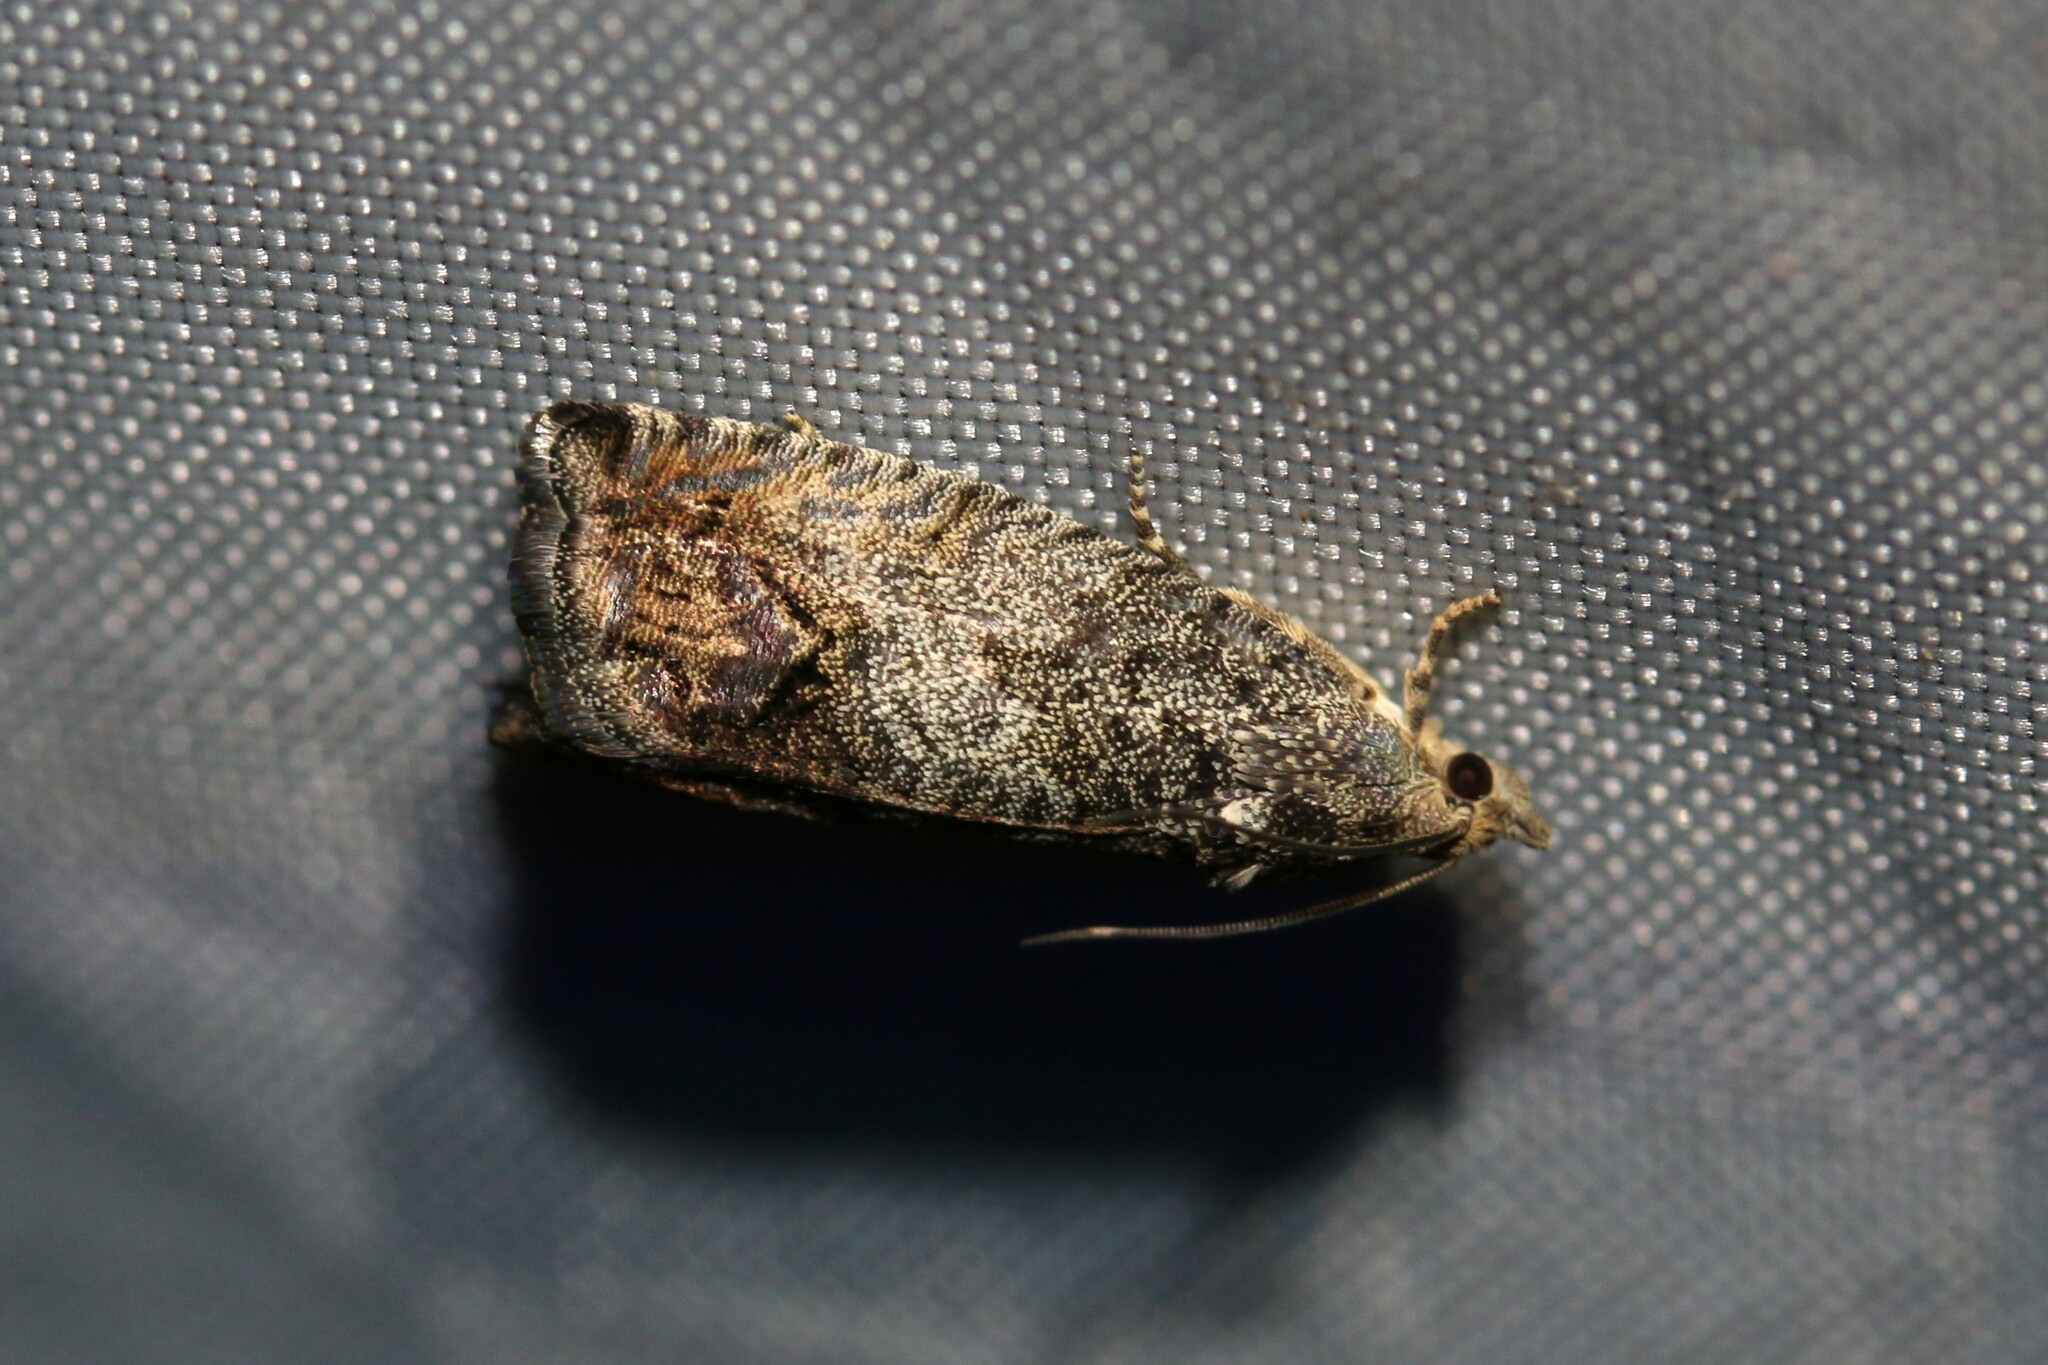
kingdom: Animalia
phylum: Arthropoda
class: Insecta
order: Lepidoptera
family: Tortricidae
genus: Cydia
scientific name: Cydia splendana
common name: De: kastanienwickler, eichenwickler es: oruga de la castaña fr: carpocapse des châtaignes it: cidia o tortrice tardiva delle castagne pt: bichado das castanhas gb: acorn moth, chestnut fruit tortrix
